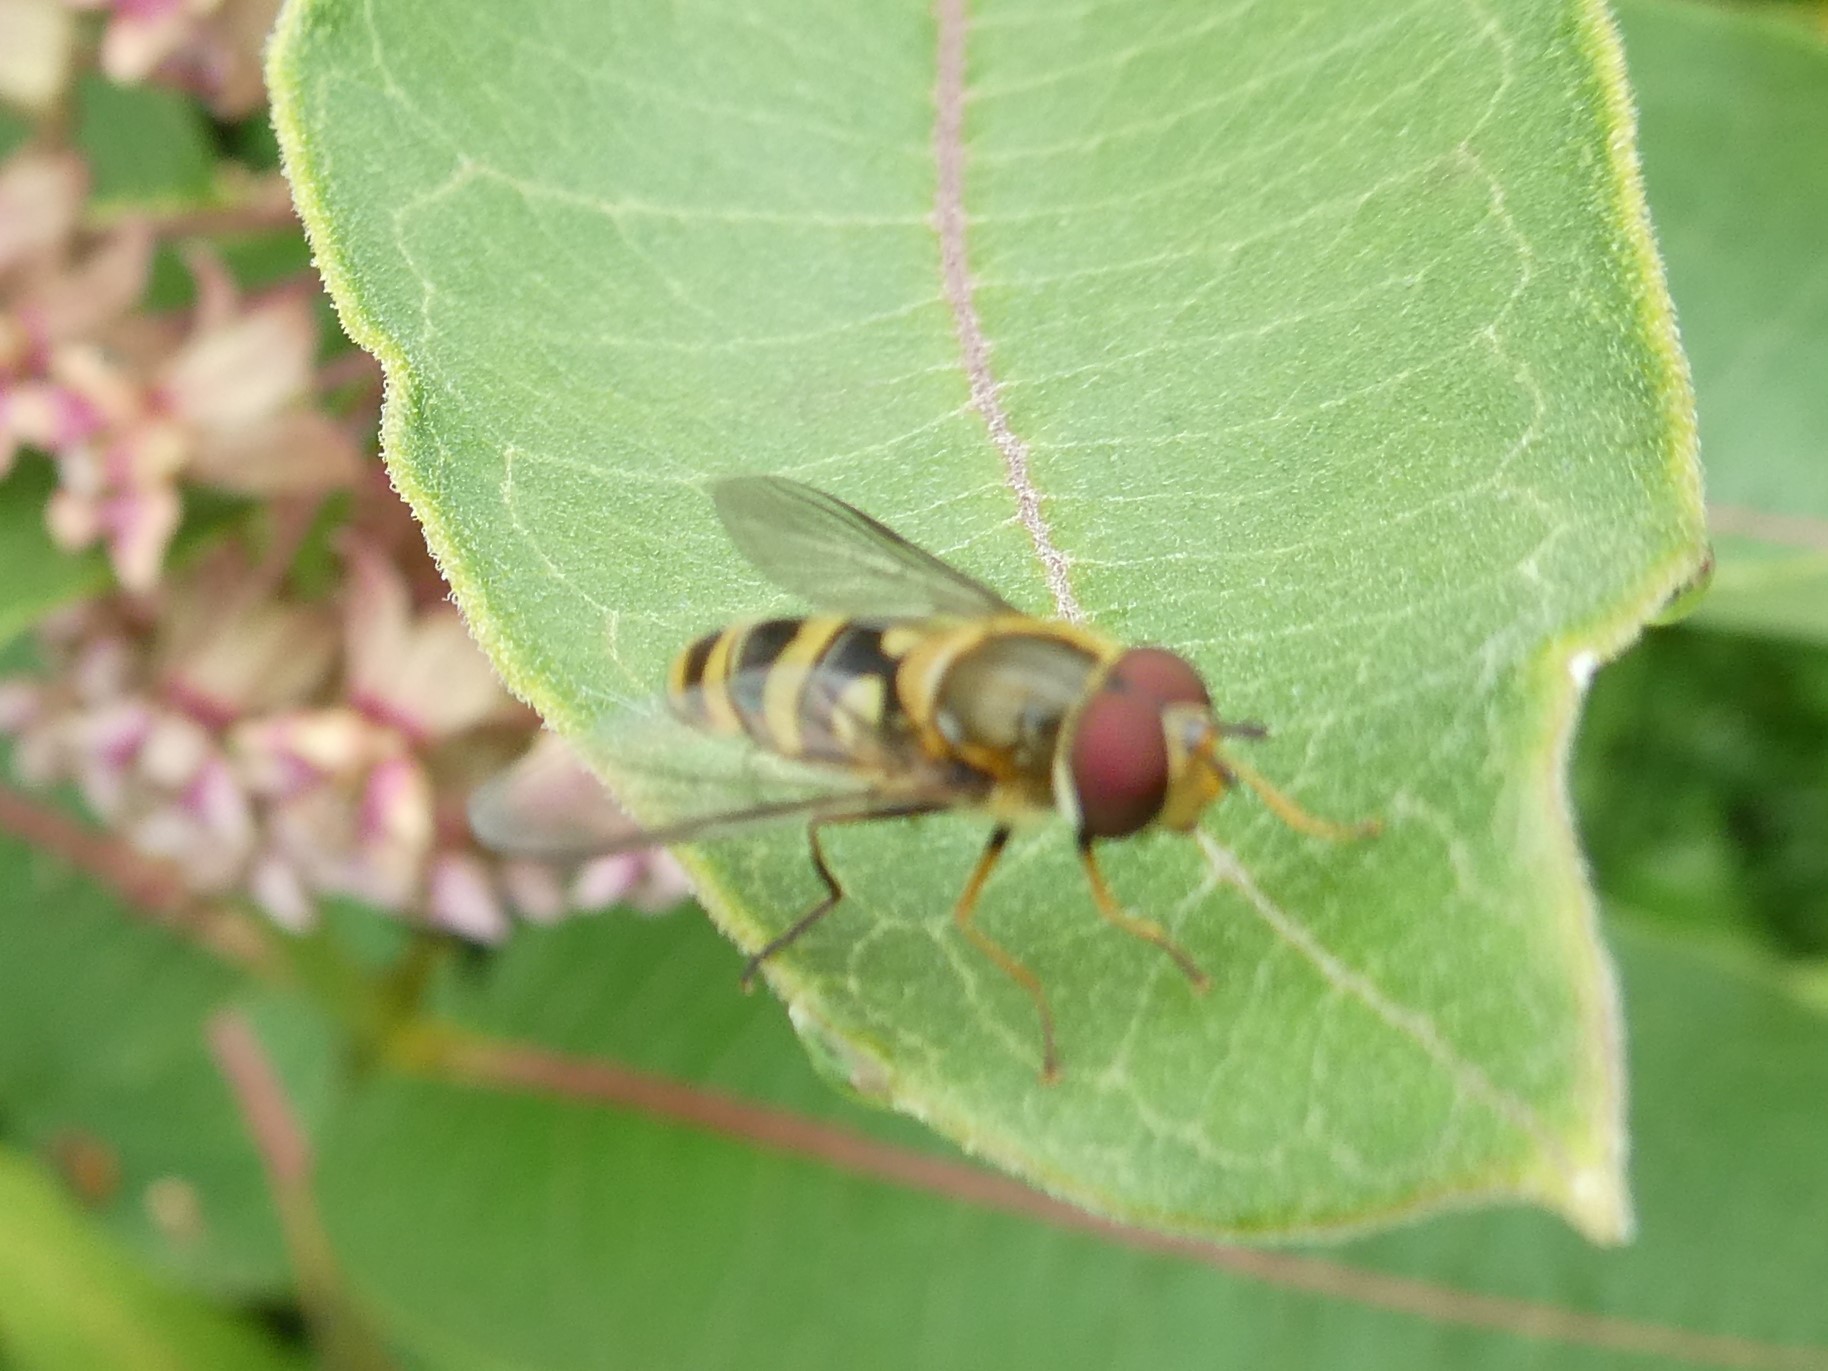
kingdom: Animalia
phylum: Arthropoda
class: Insecta
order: Diptera
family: Syrphidae
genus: Syrphus
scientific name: Syrphus
